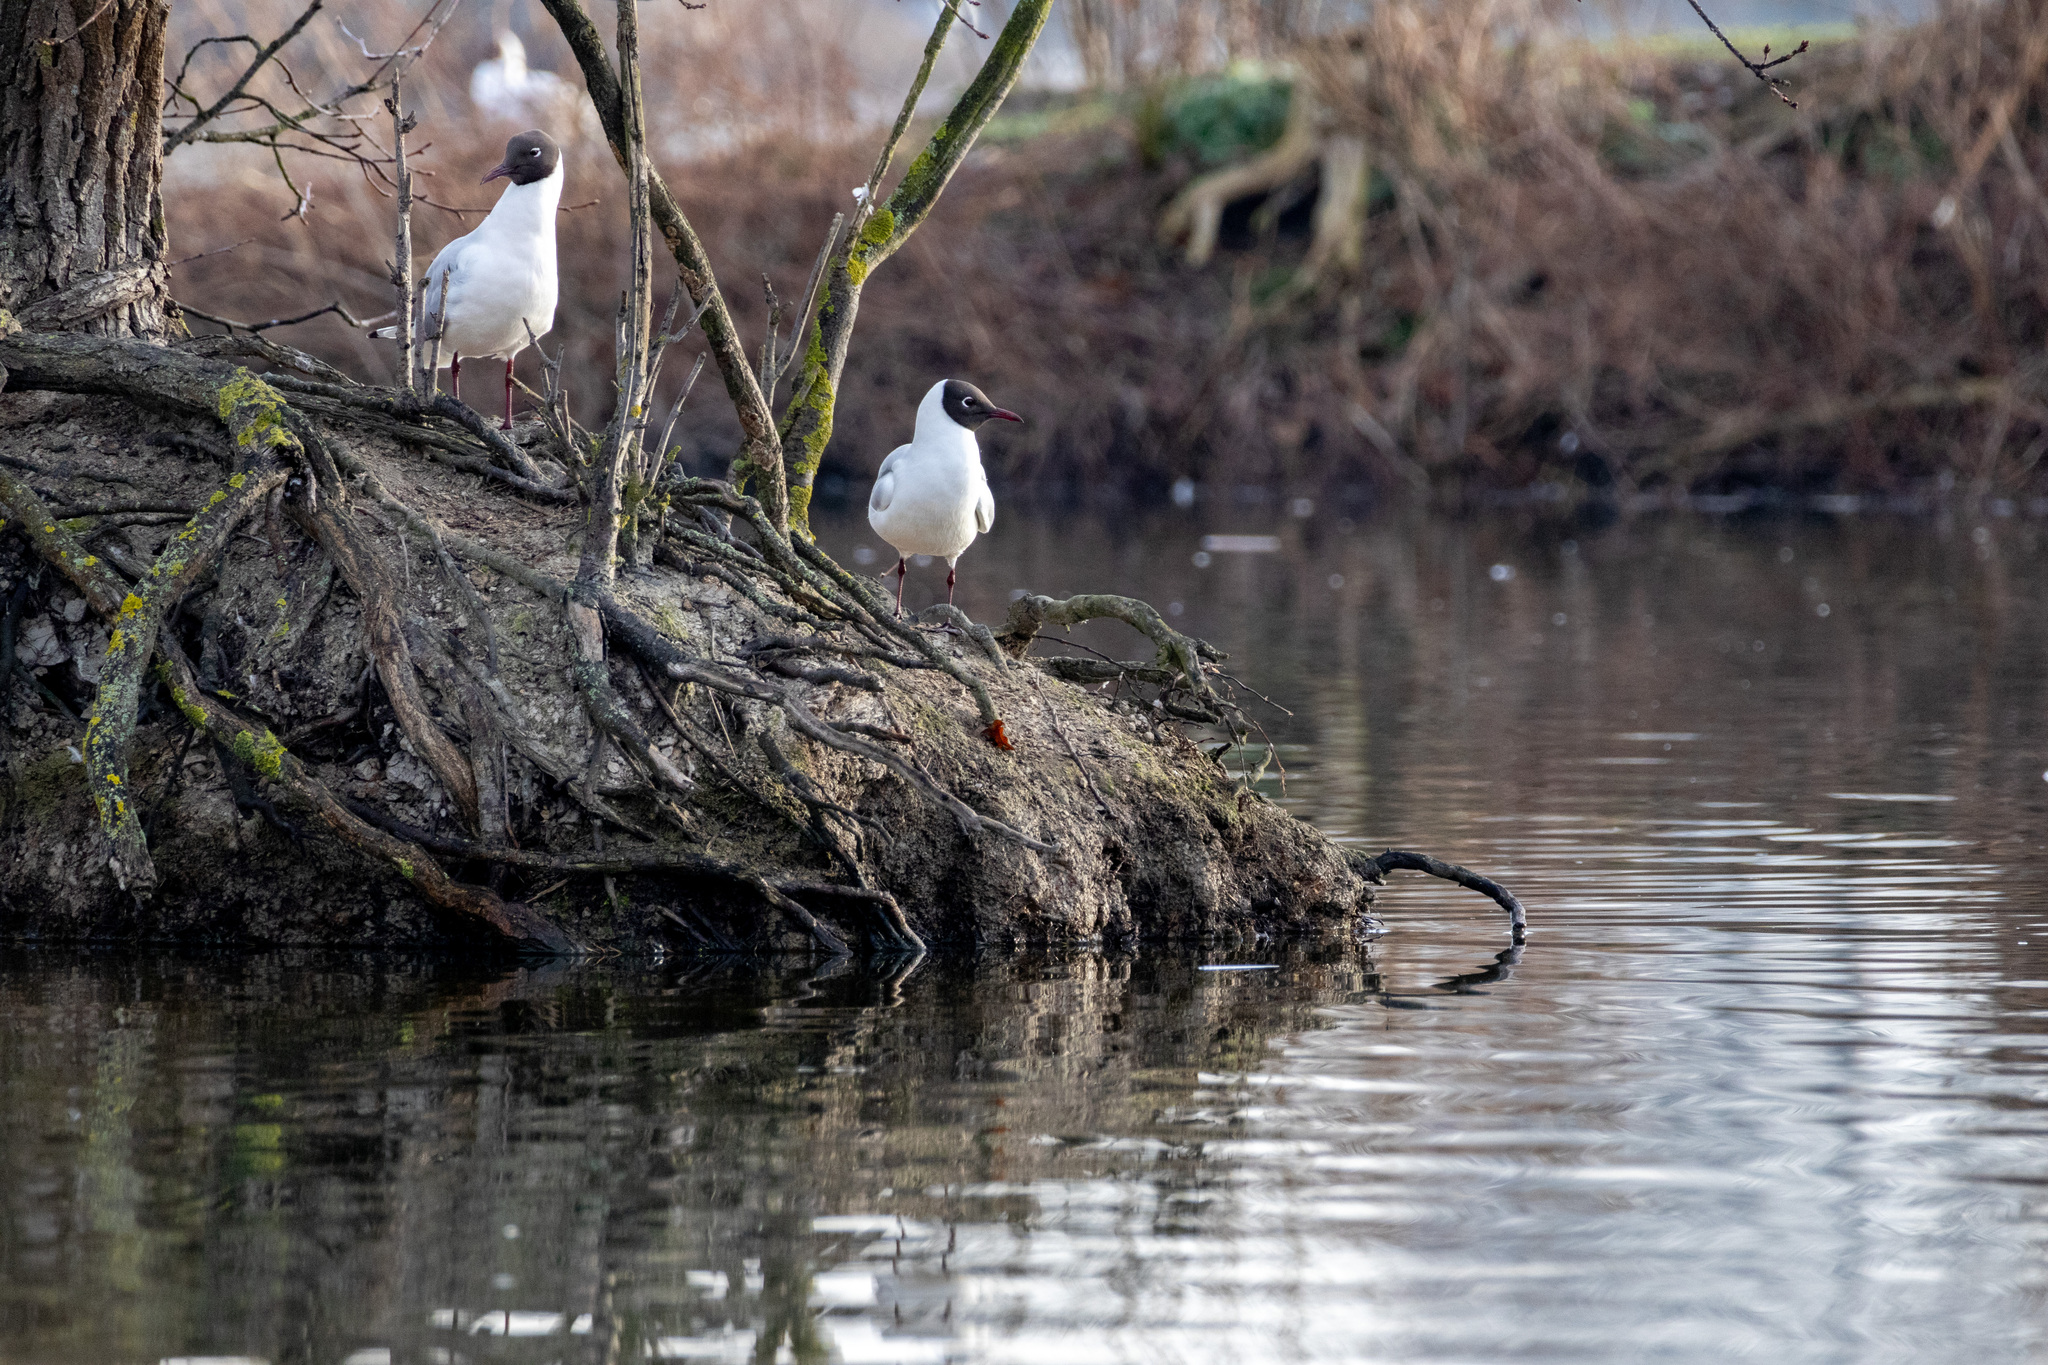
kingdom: Animalia
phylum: Chordata
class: Aves
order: Charadriiformes
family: Laridae
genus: Chroicocephalus
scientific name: Chroicocephalus ridibundus
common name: Black-headed gull
